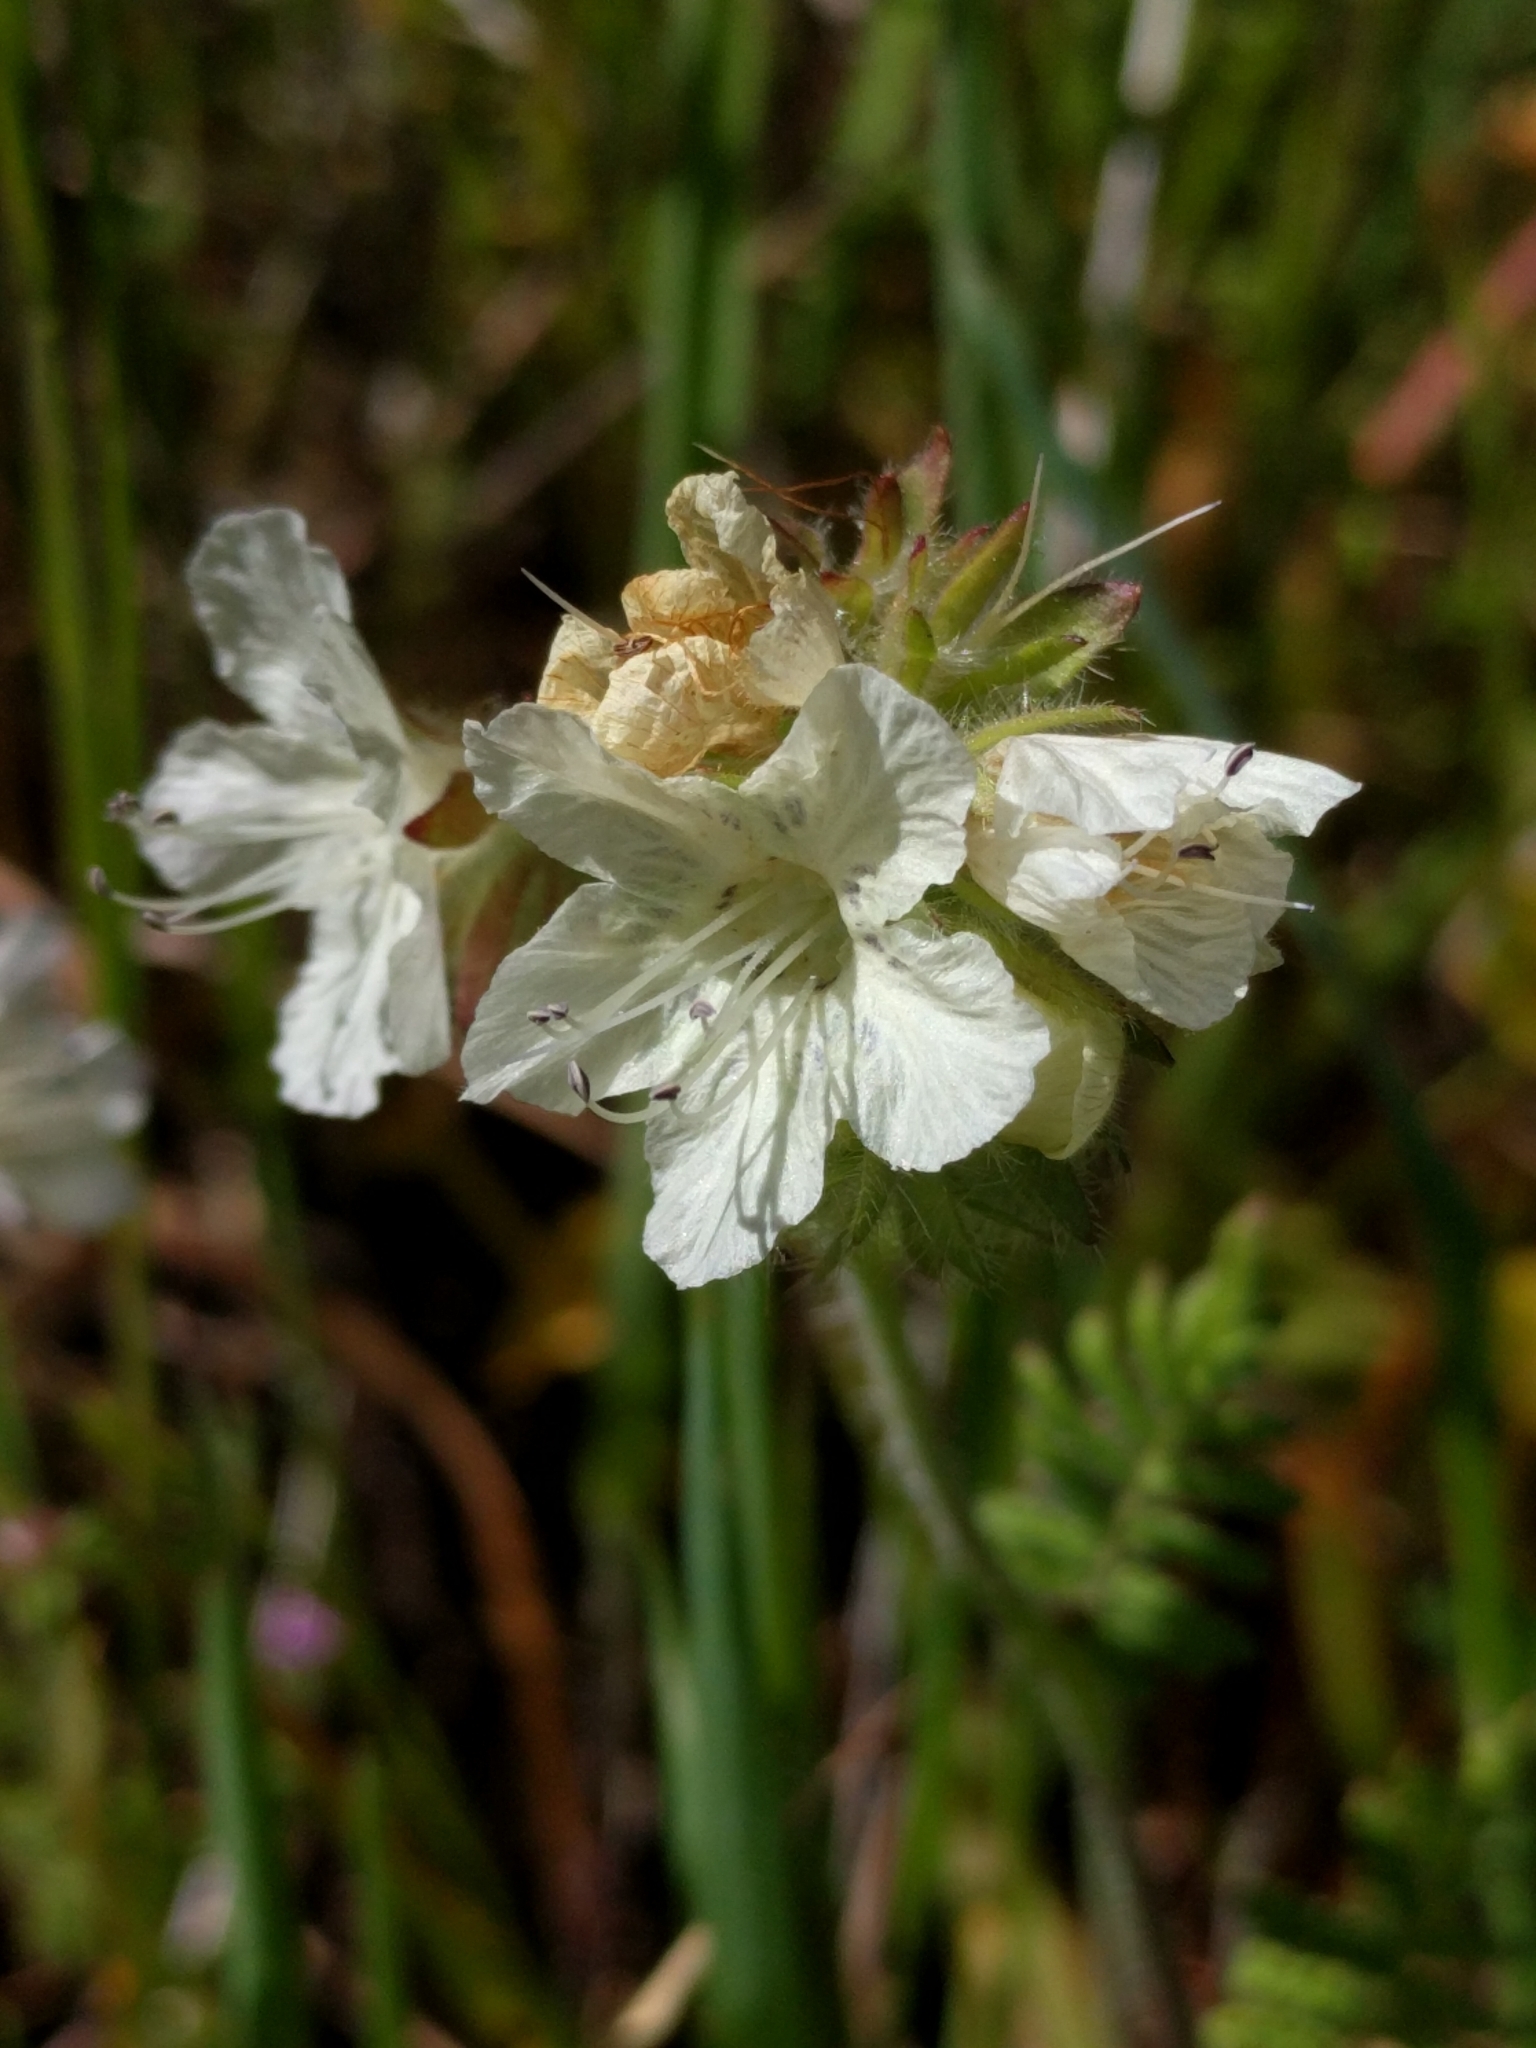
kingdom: Plantae
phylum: Tracheophyta
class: Magnoliopsida
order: Boraginales
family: Hydrophyllaceae
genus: Phacelia
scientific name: Phacelia distans
